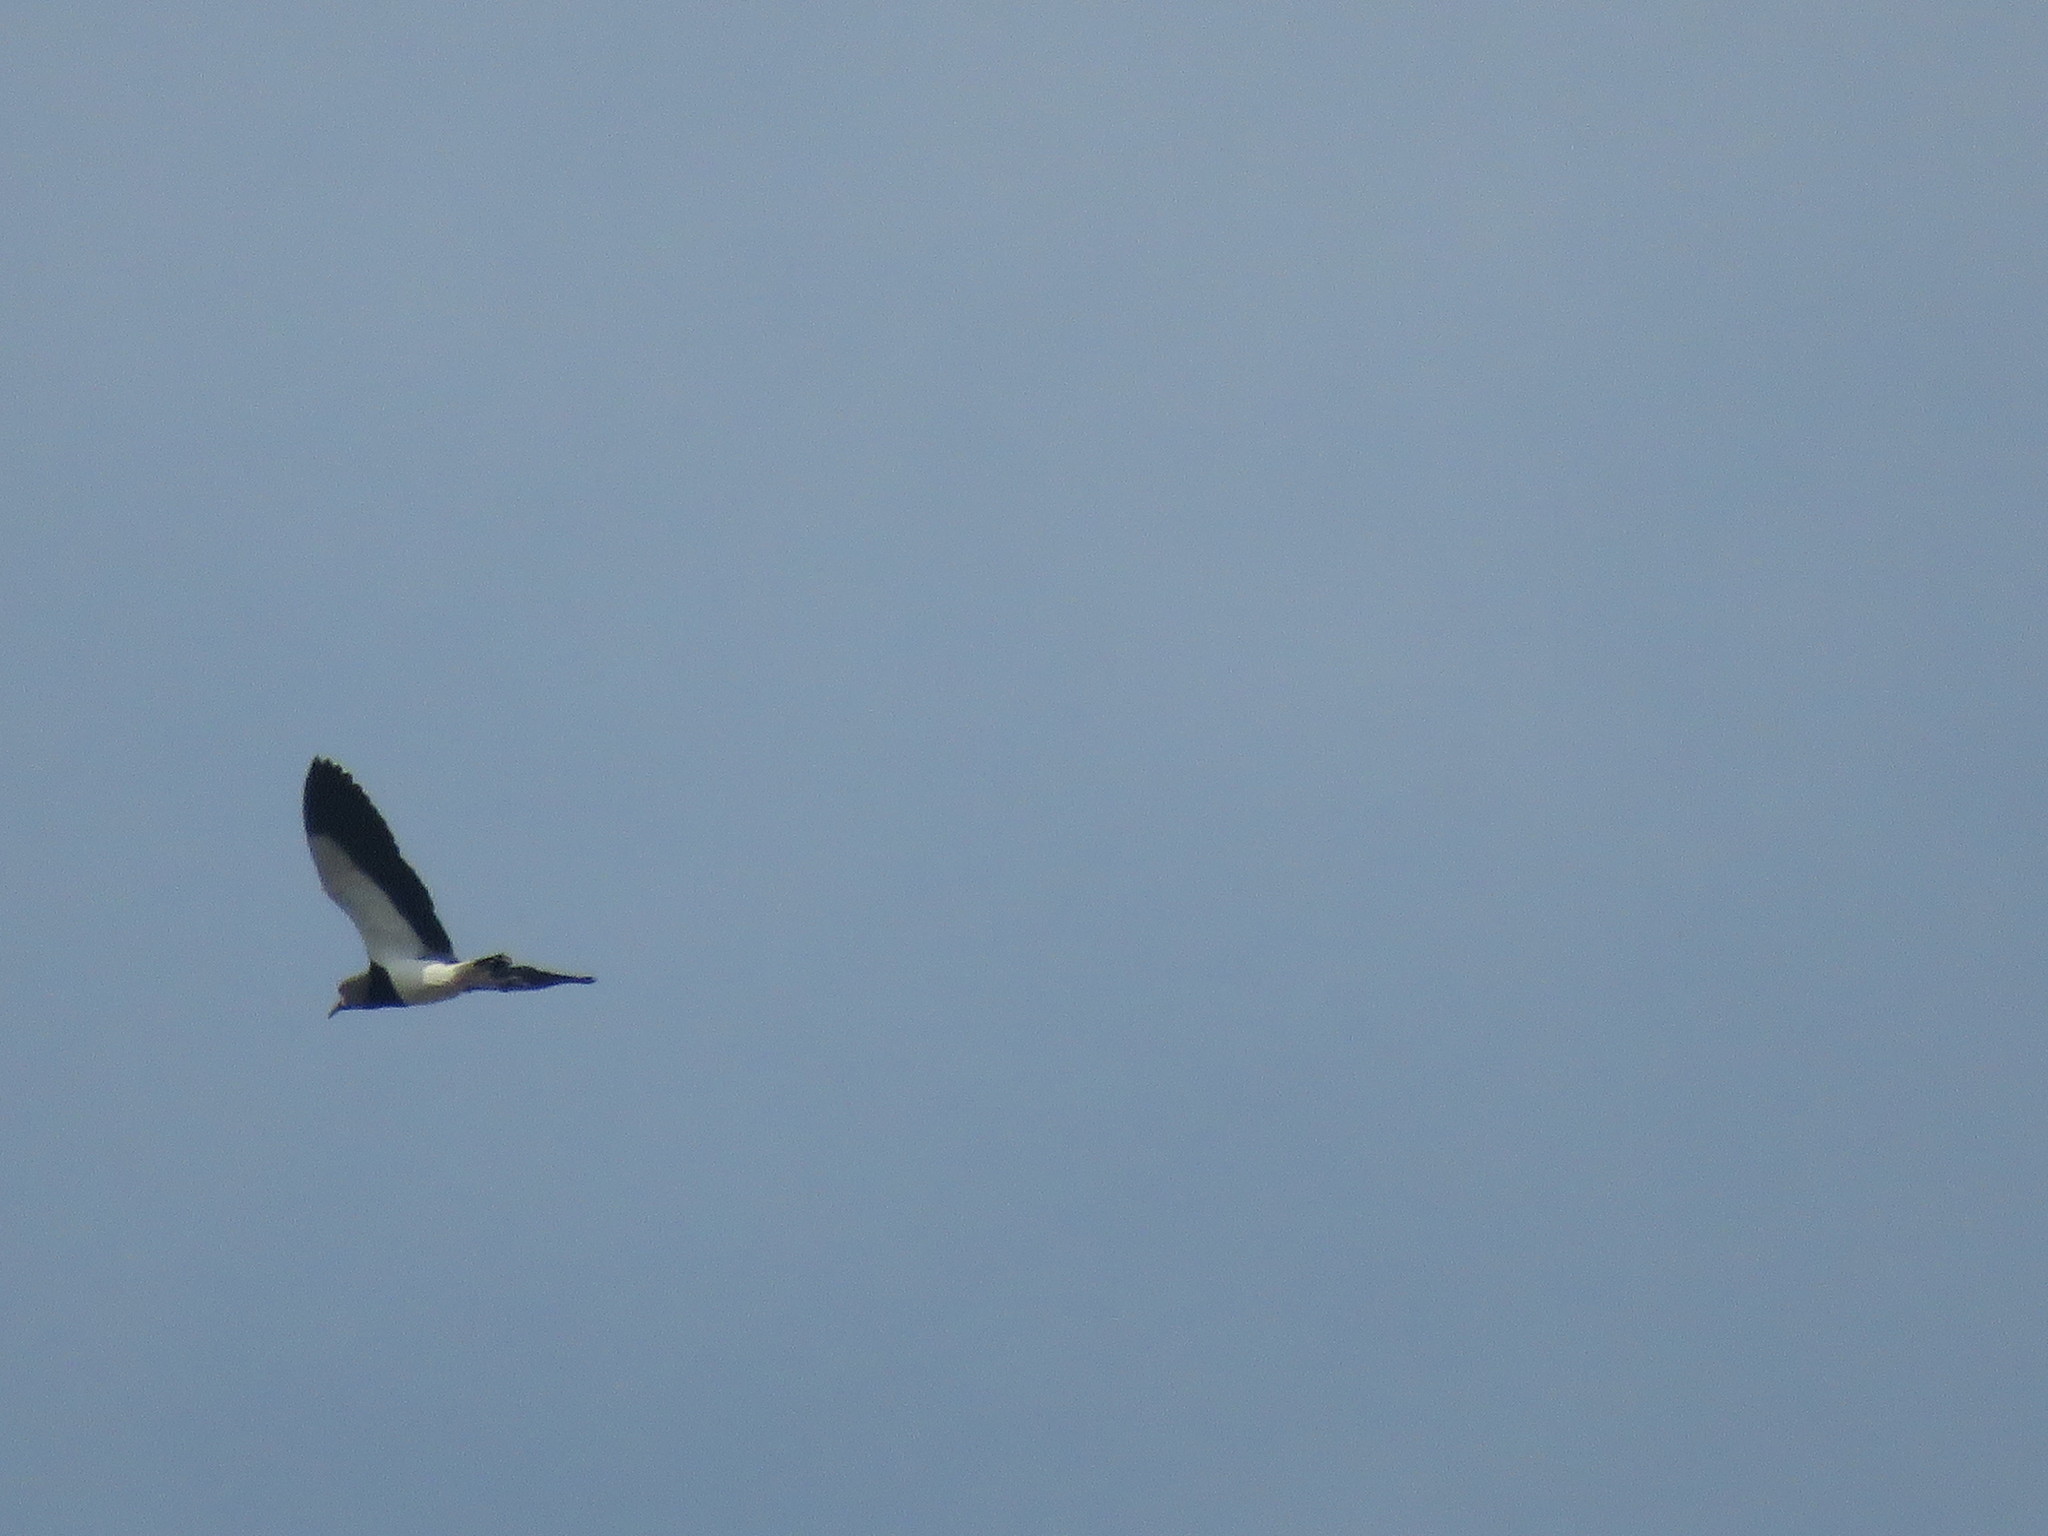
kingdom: Animalia
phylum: Chordata
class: Aves
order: Charadriiformes
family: Charadriidae
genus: Vanellus
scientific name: Vanellus chilensis
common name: Southern lapwing
